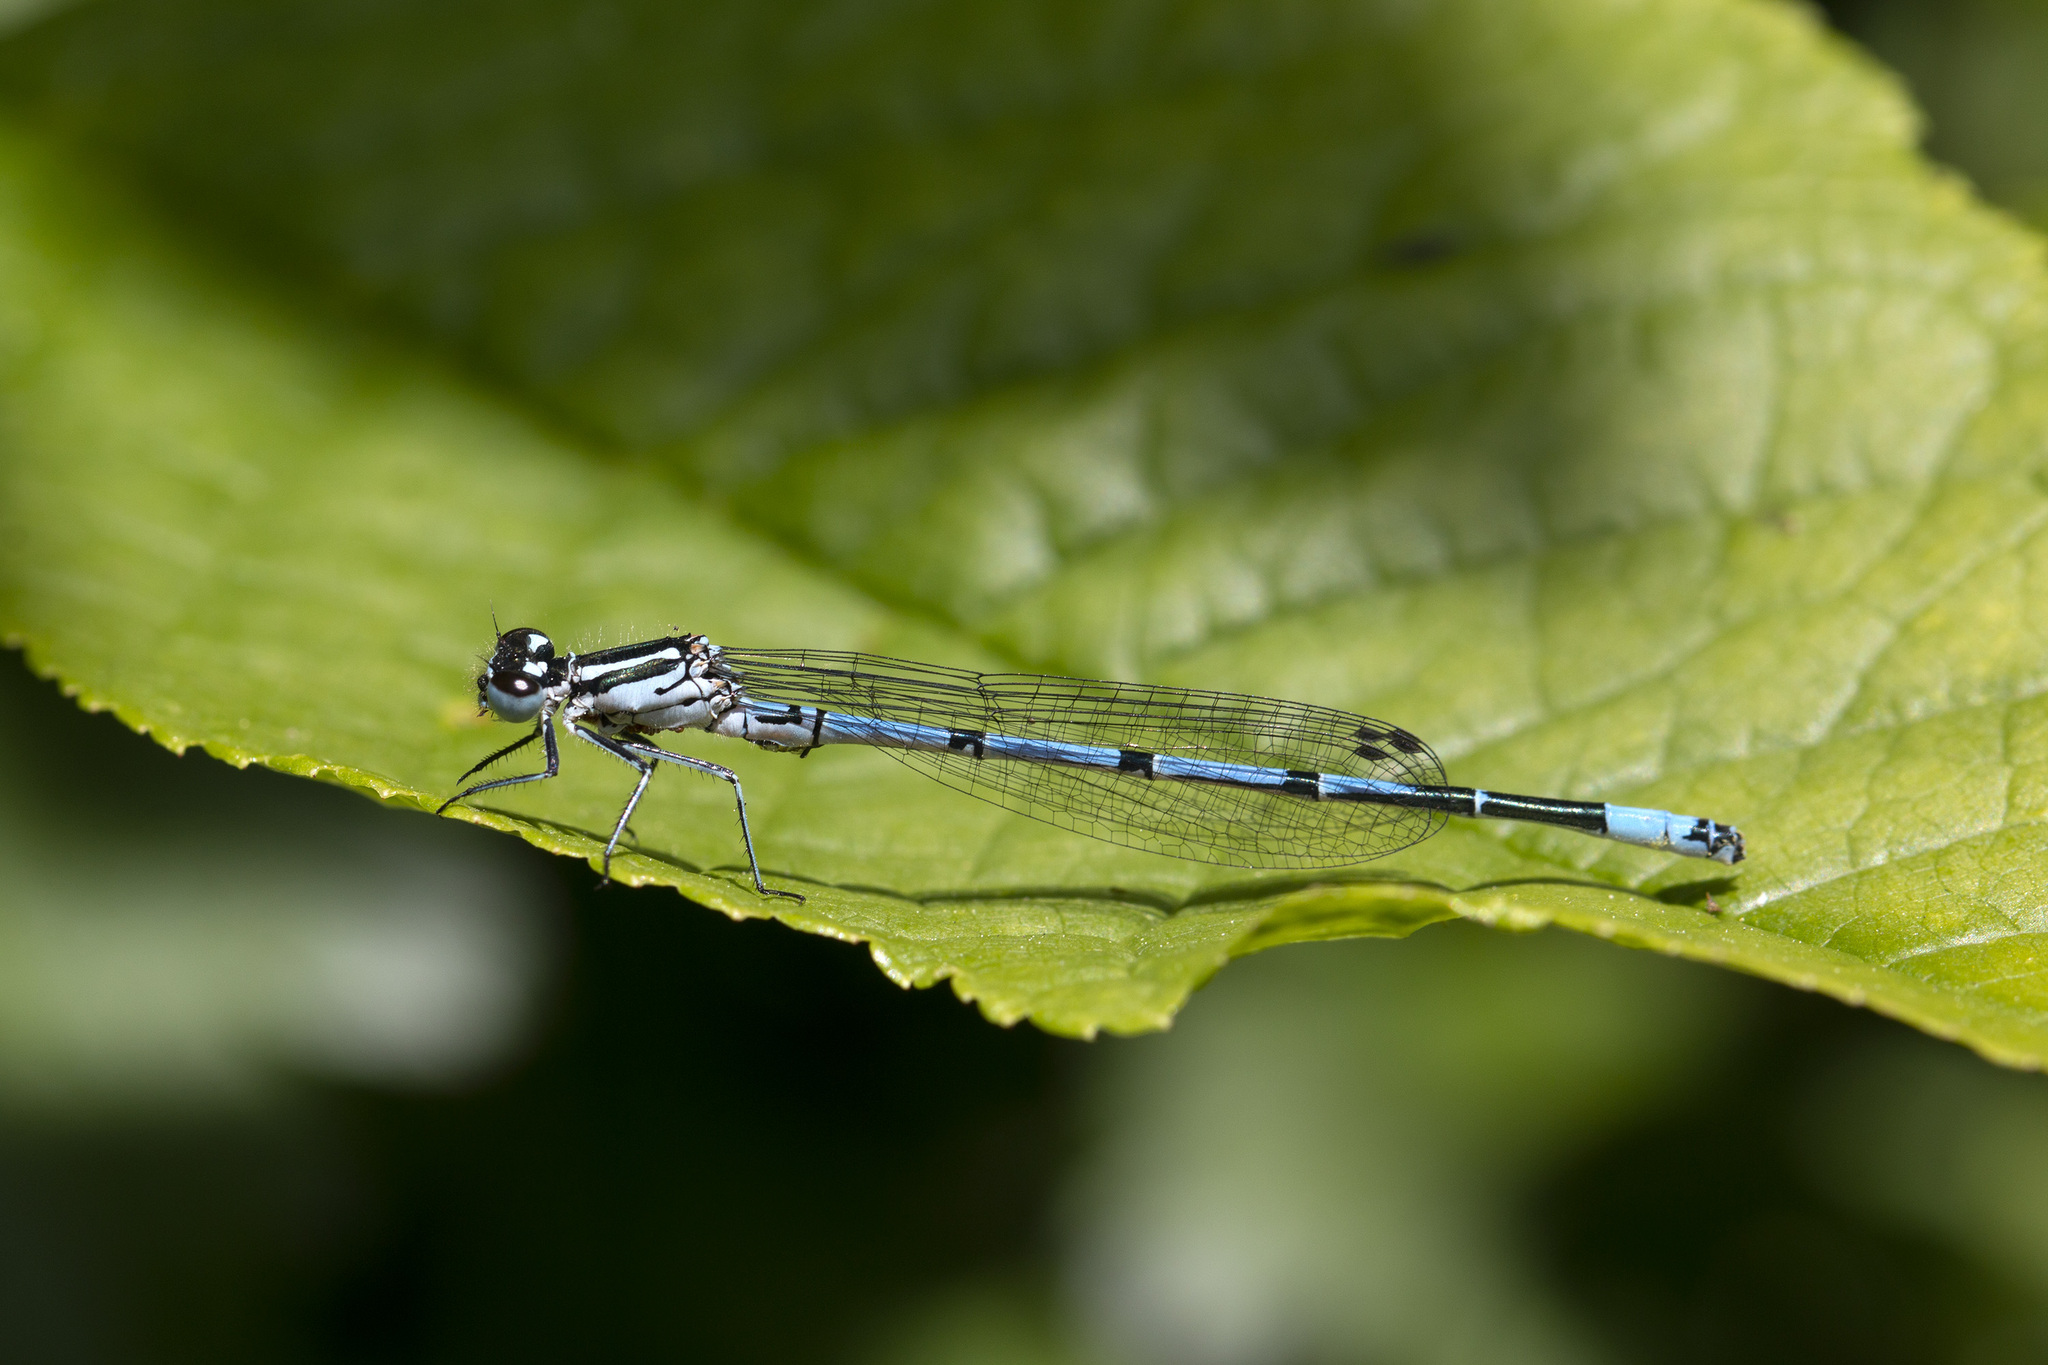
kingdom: Animalia
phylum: Arthropoda
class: Insecta
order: Odonata
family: Coenagrionidae
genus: Coenagrion
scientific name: Coenagrion puella
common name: Azure damselfly
